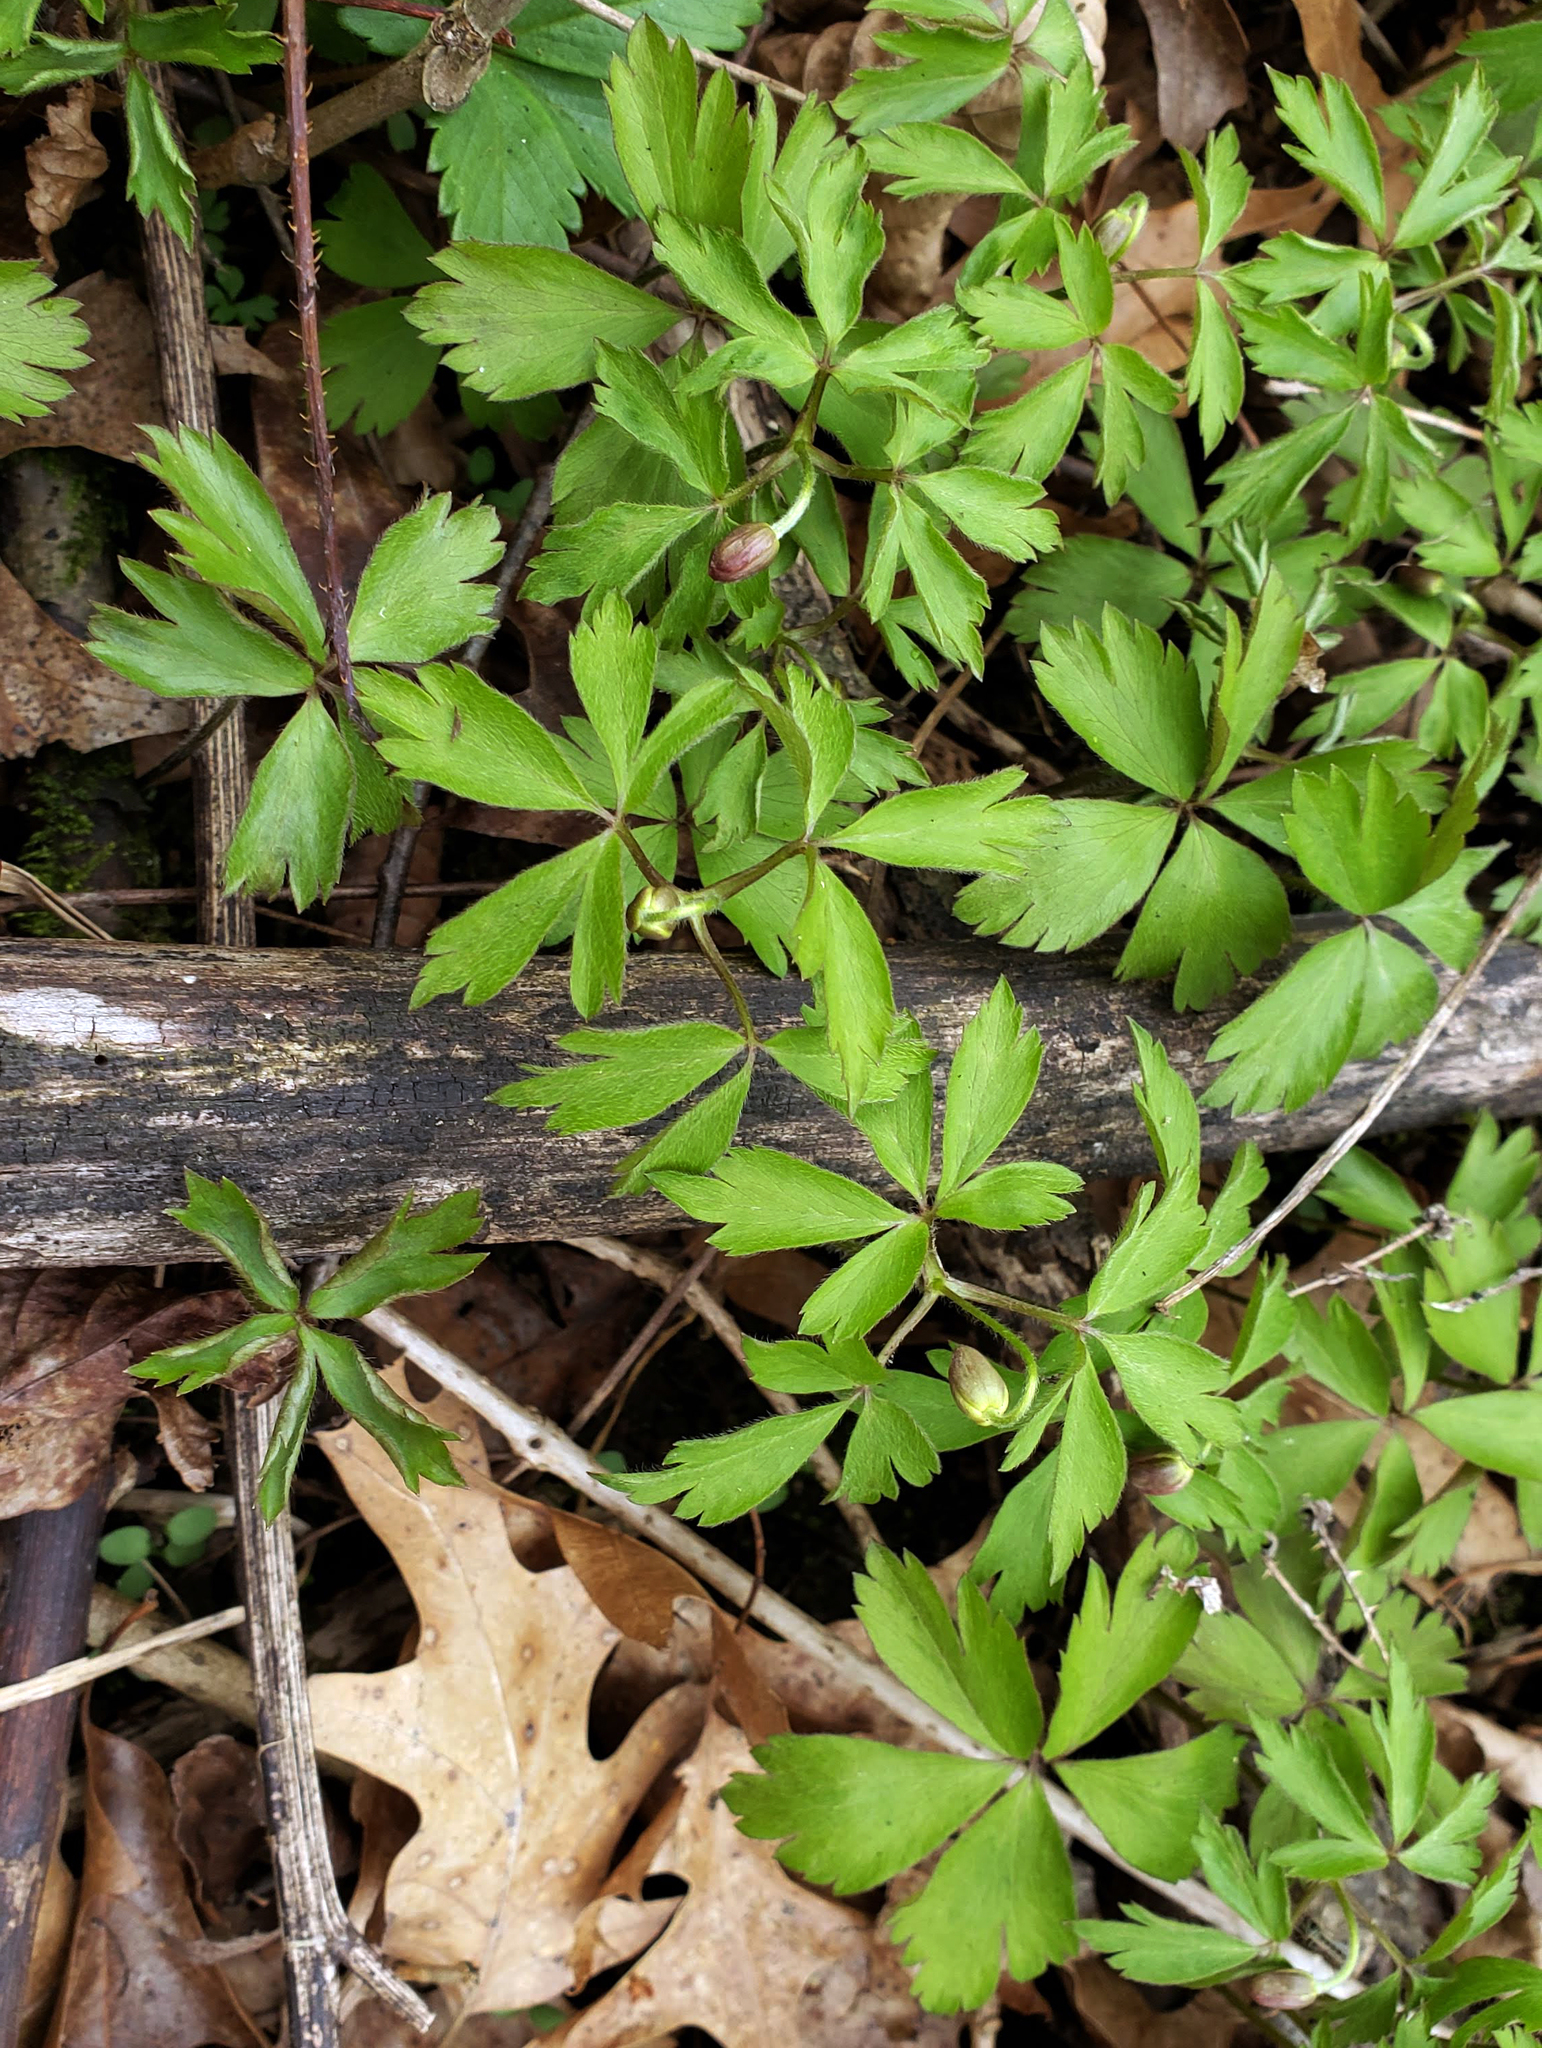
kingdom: Plantae
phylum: Tracheophyta
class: Magnoliopsida
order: Ranunculales
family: Ranunculaceae
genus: Anemone
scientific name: Anemone quinquefolia
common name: Wood anemone
